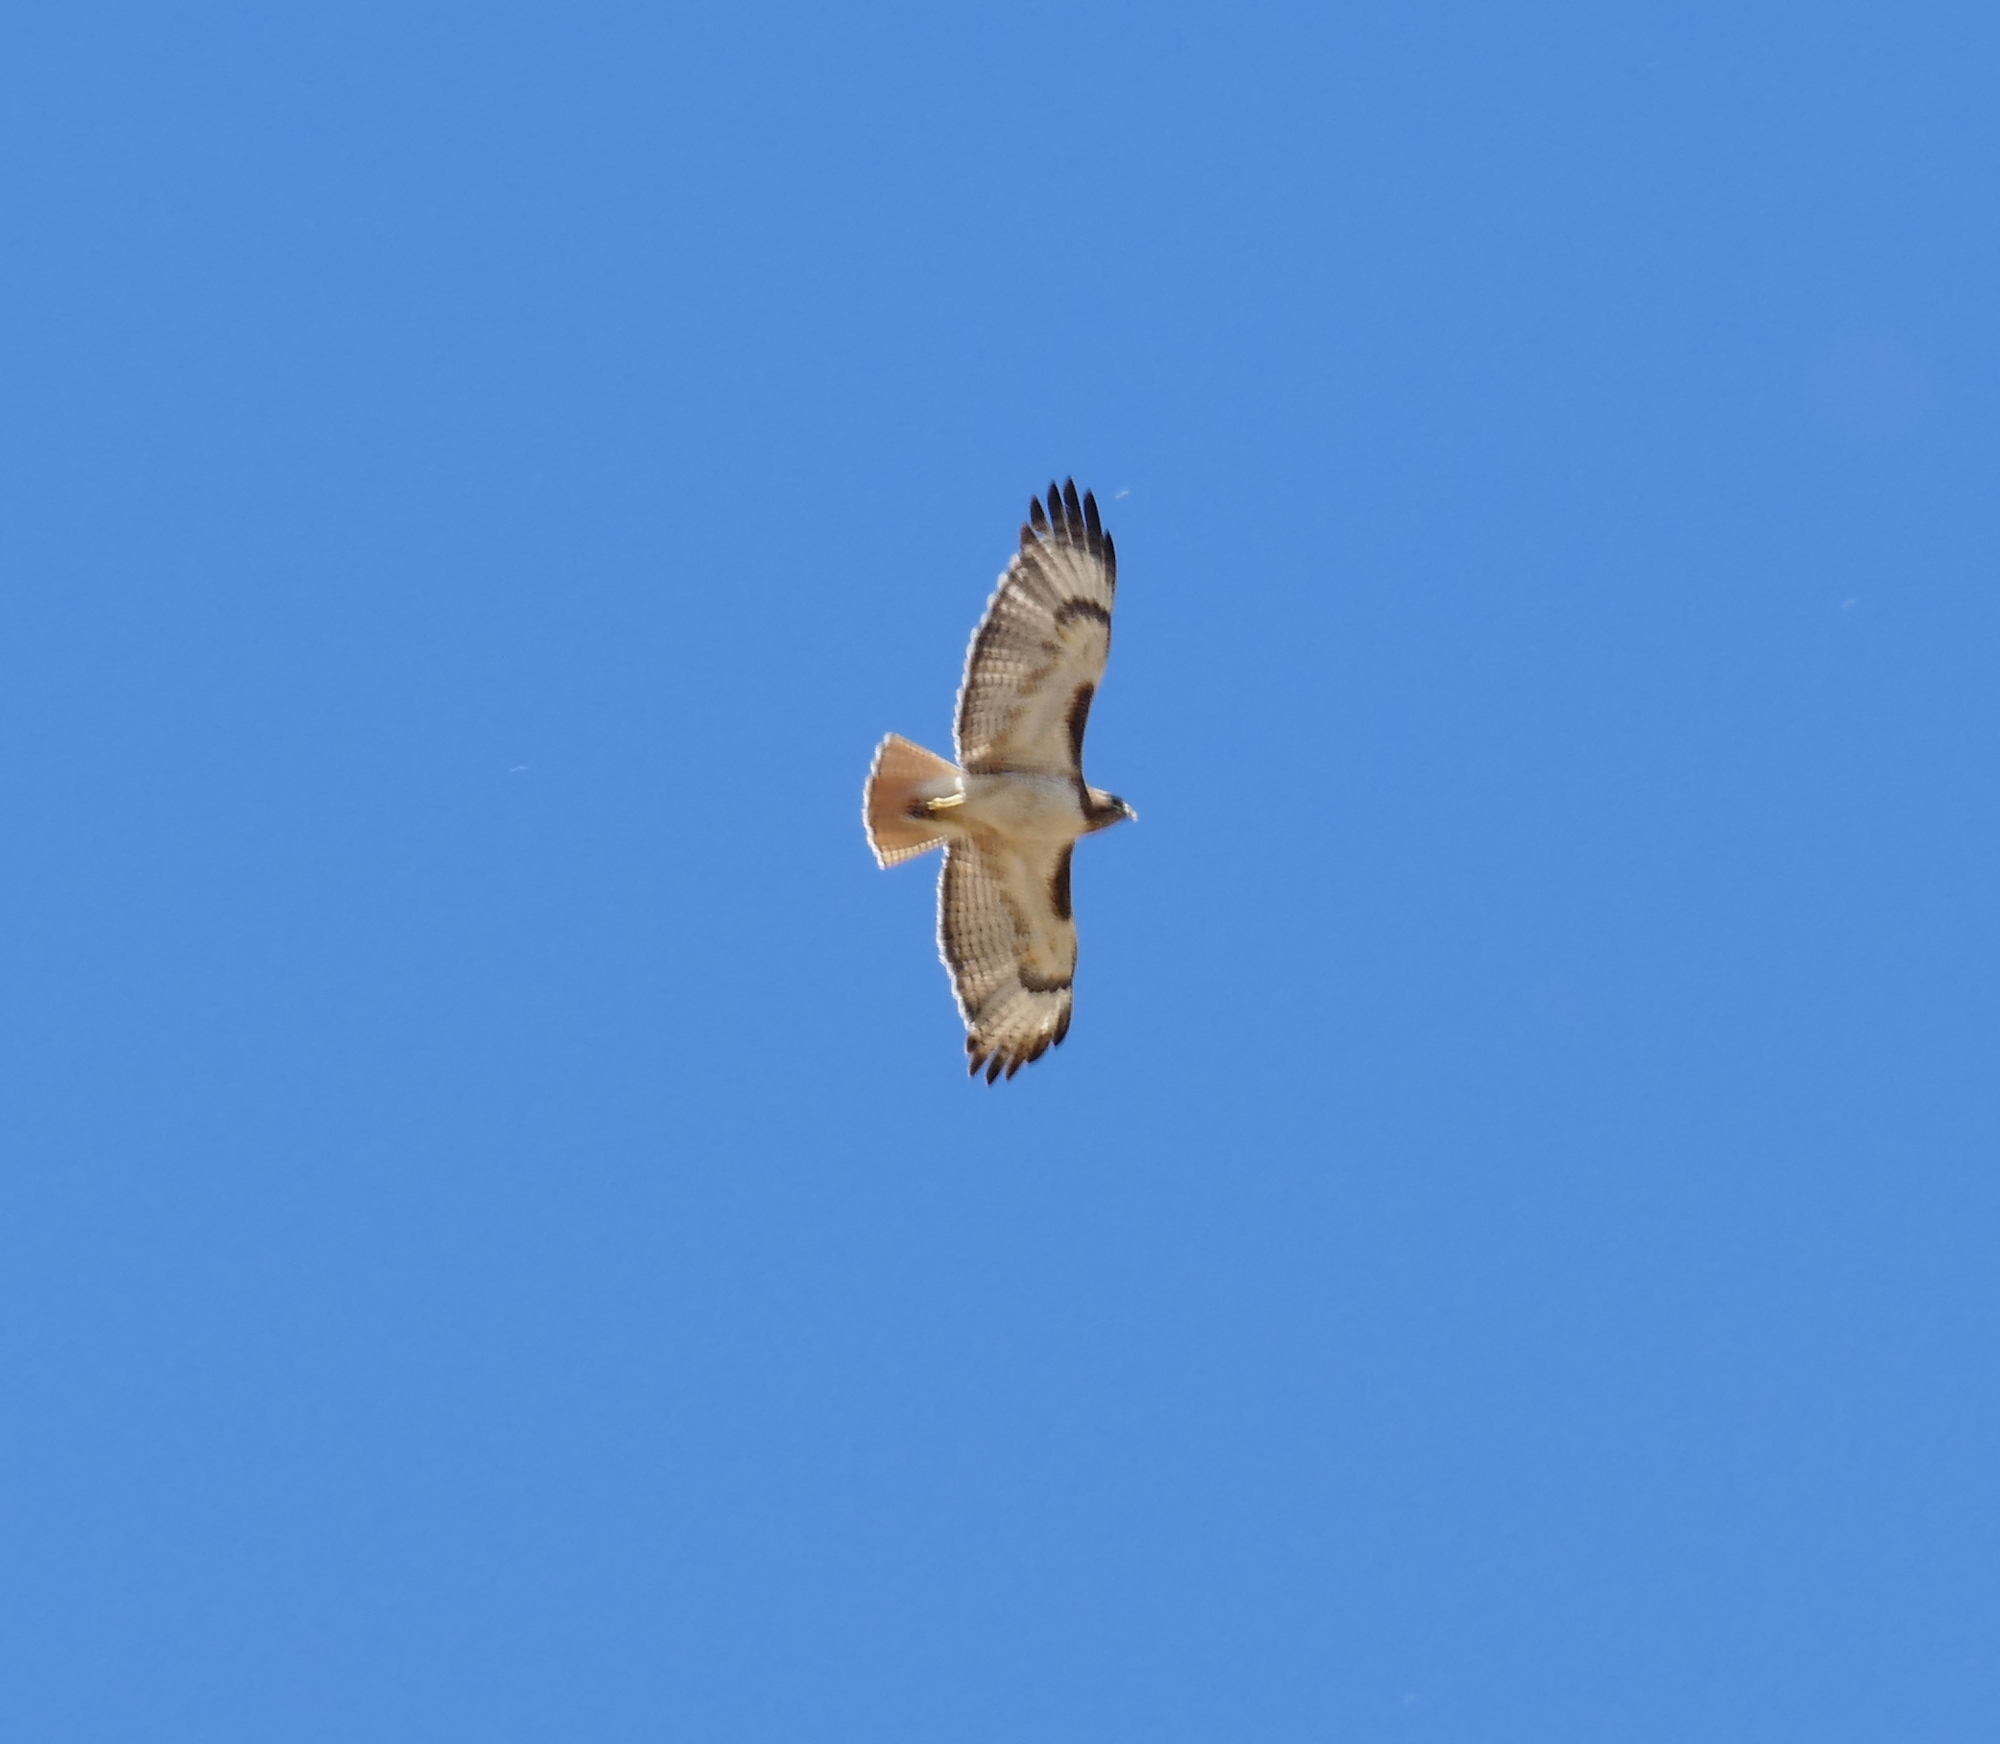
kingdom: Animalia
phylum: Chordata
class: Aves
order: Accipitriformes
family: Accipitridae
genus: Buteo
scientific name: Buteo jamaicensis
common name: Red-tailed hawk
